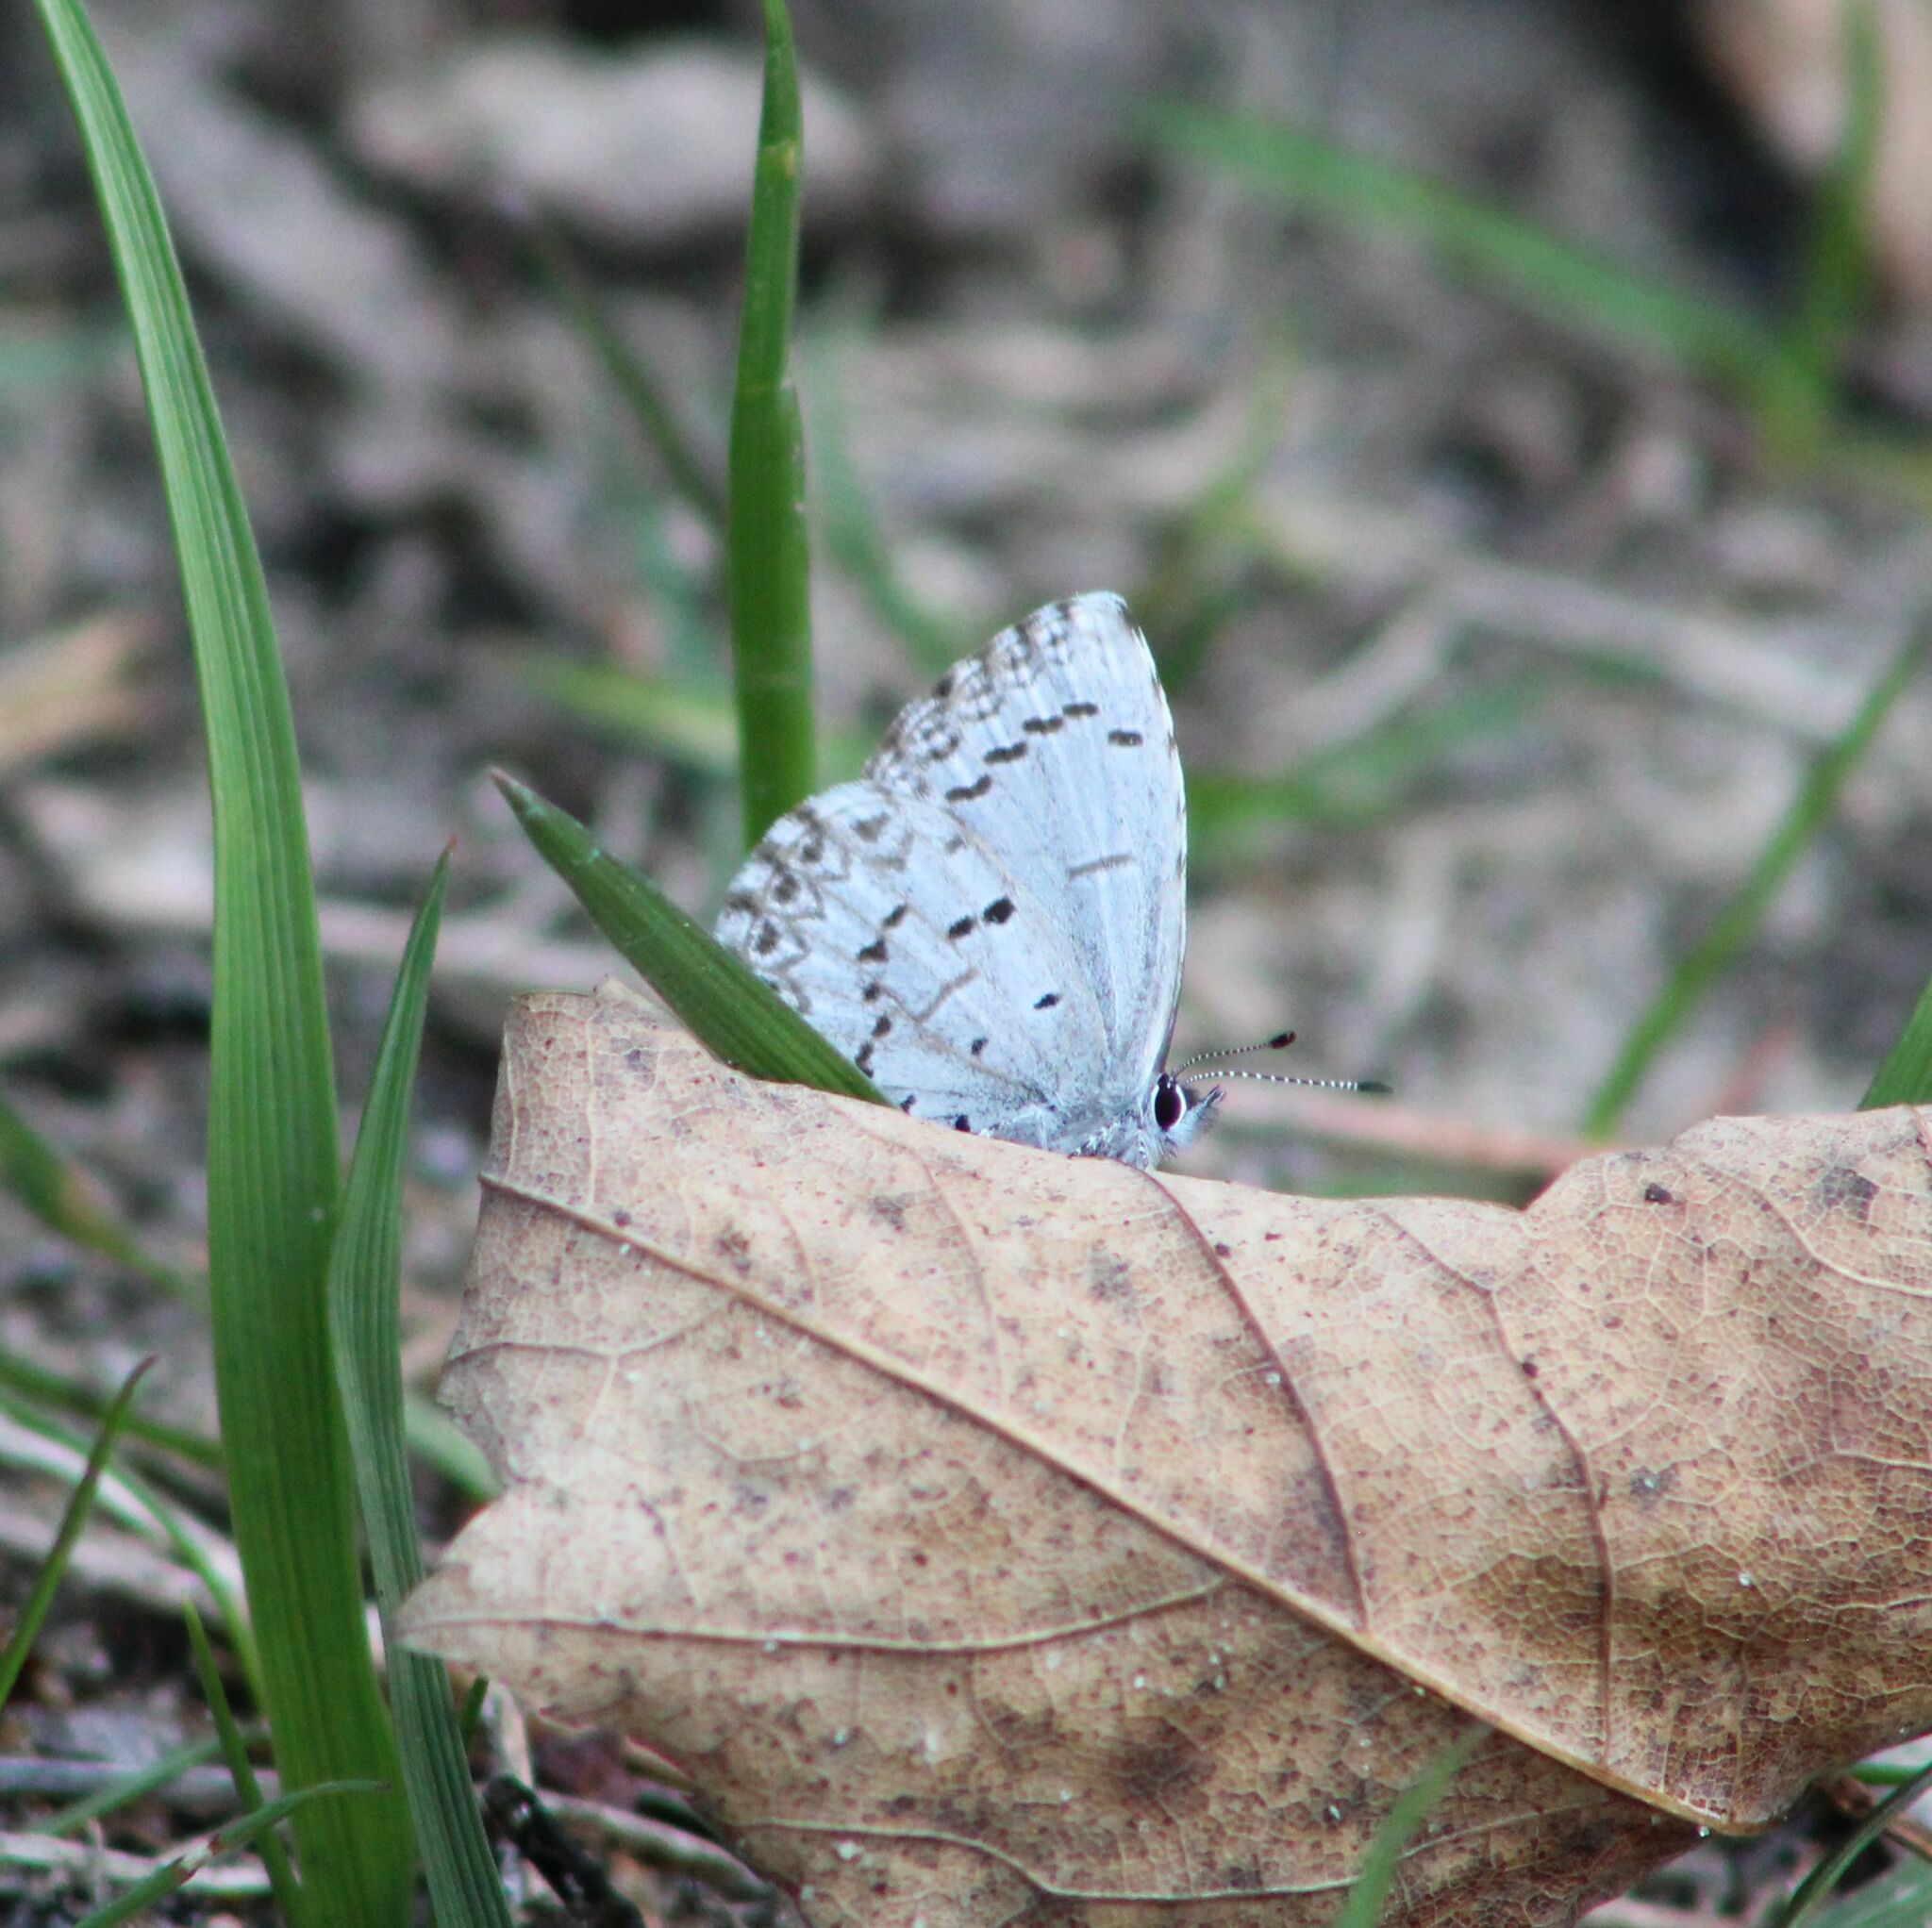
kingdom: Animalia
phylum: Arthropoda
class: Insecta
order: Lepidoptera
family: Lycaenidae
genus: Celastrina
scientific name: Celastrina lucia
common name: Lucia azure
